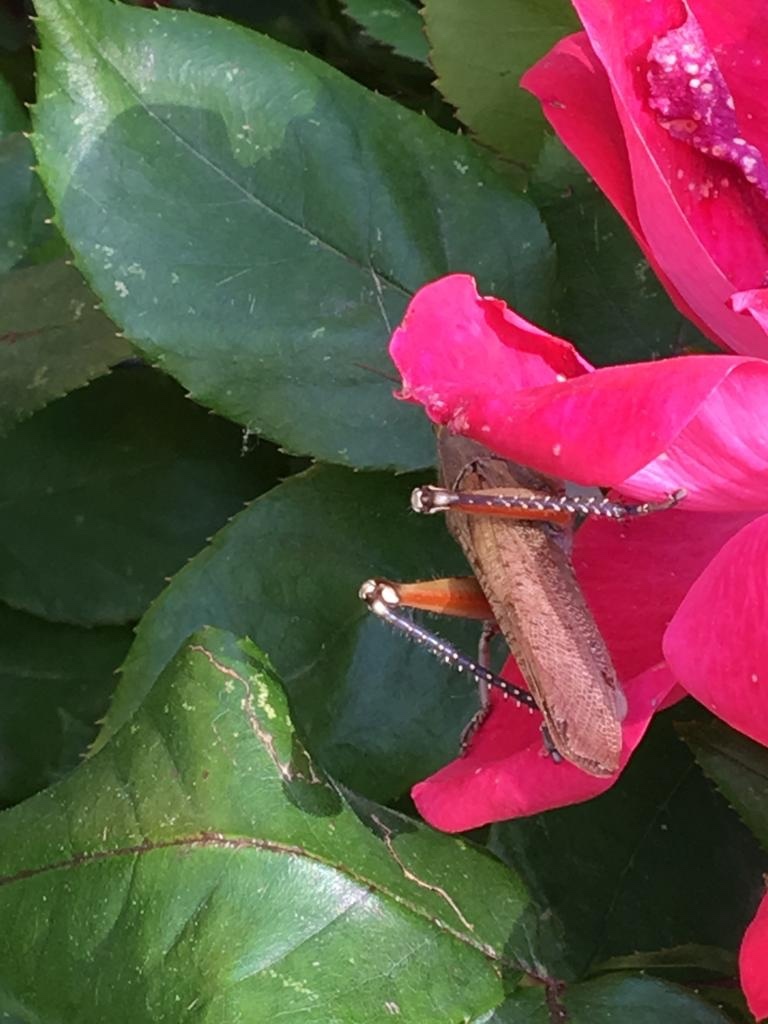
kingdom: Animalia
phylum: Arthropoda
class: Insecta
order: Orthoptera
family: Acrididae
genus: Anacridium
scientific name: Anacridium aegyptium
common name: Egyptian grasshopper
